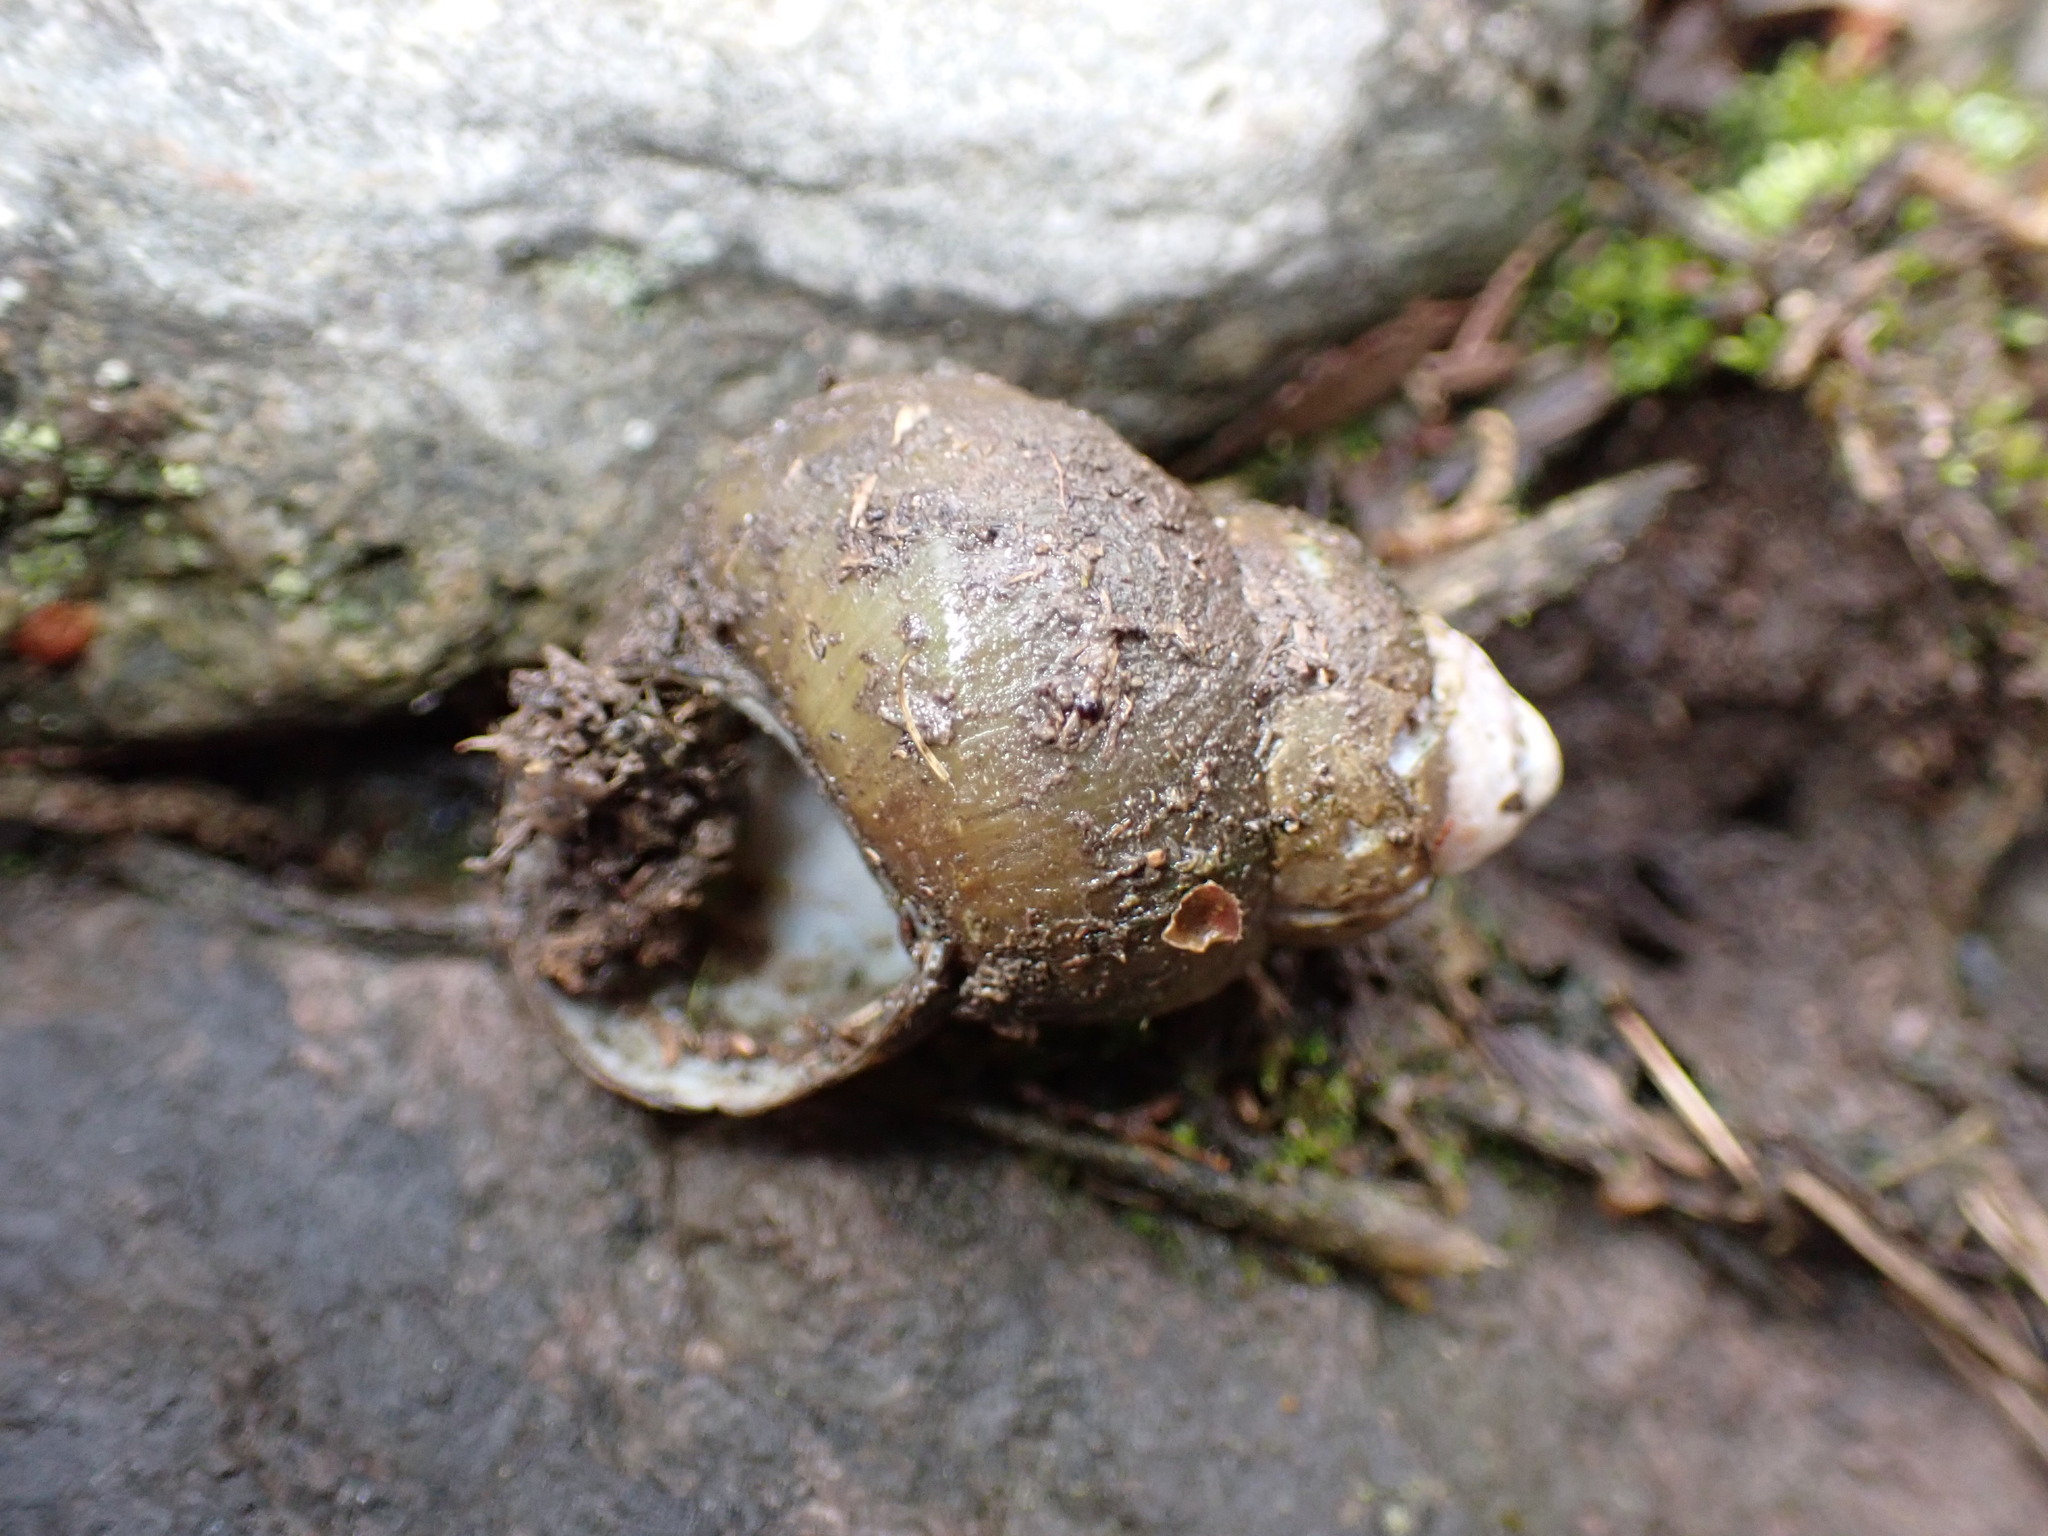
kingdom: Animalia
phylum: Mollusca
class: Gastropoda
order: Architaenioglossa
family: Viviparidae
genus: Sinotaia
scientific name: Sinotaia quadrata
